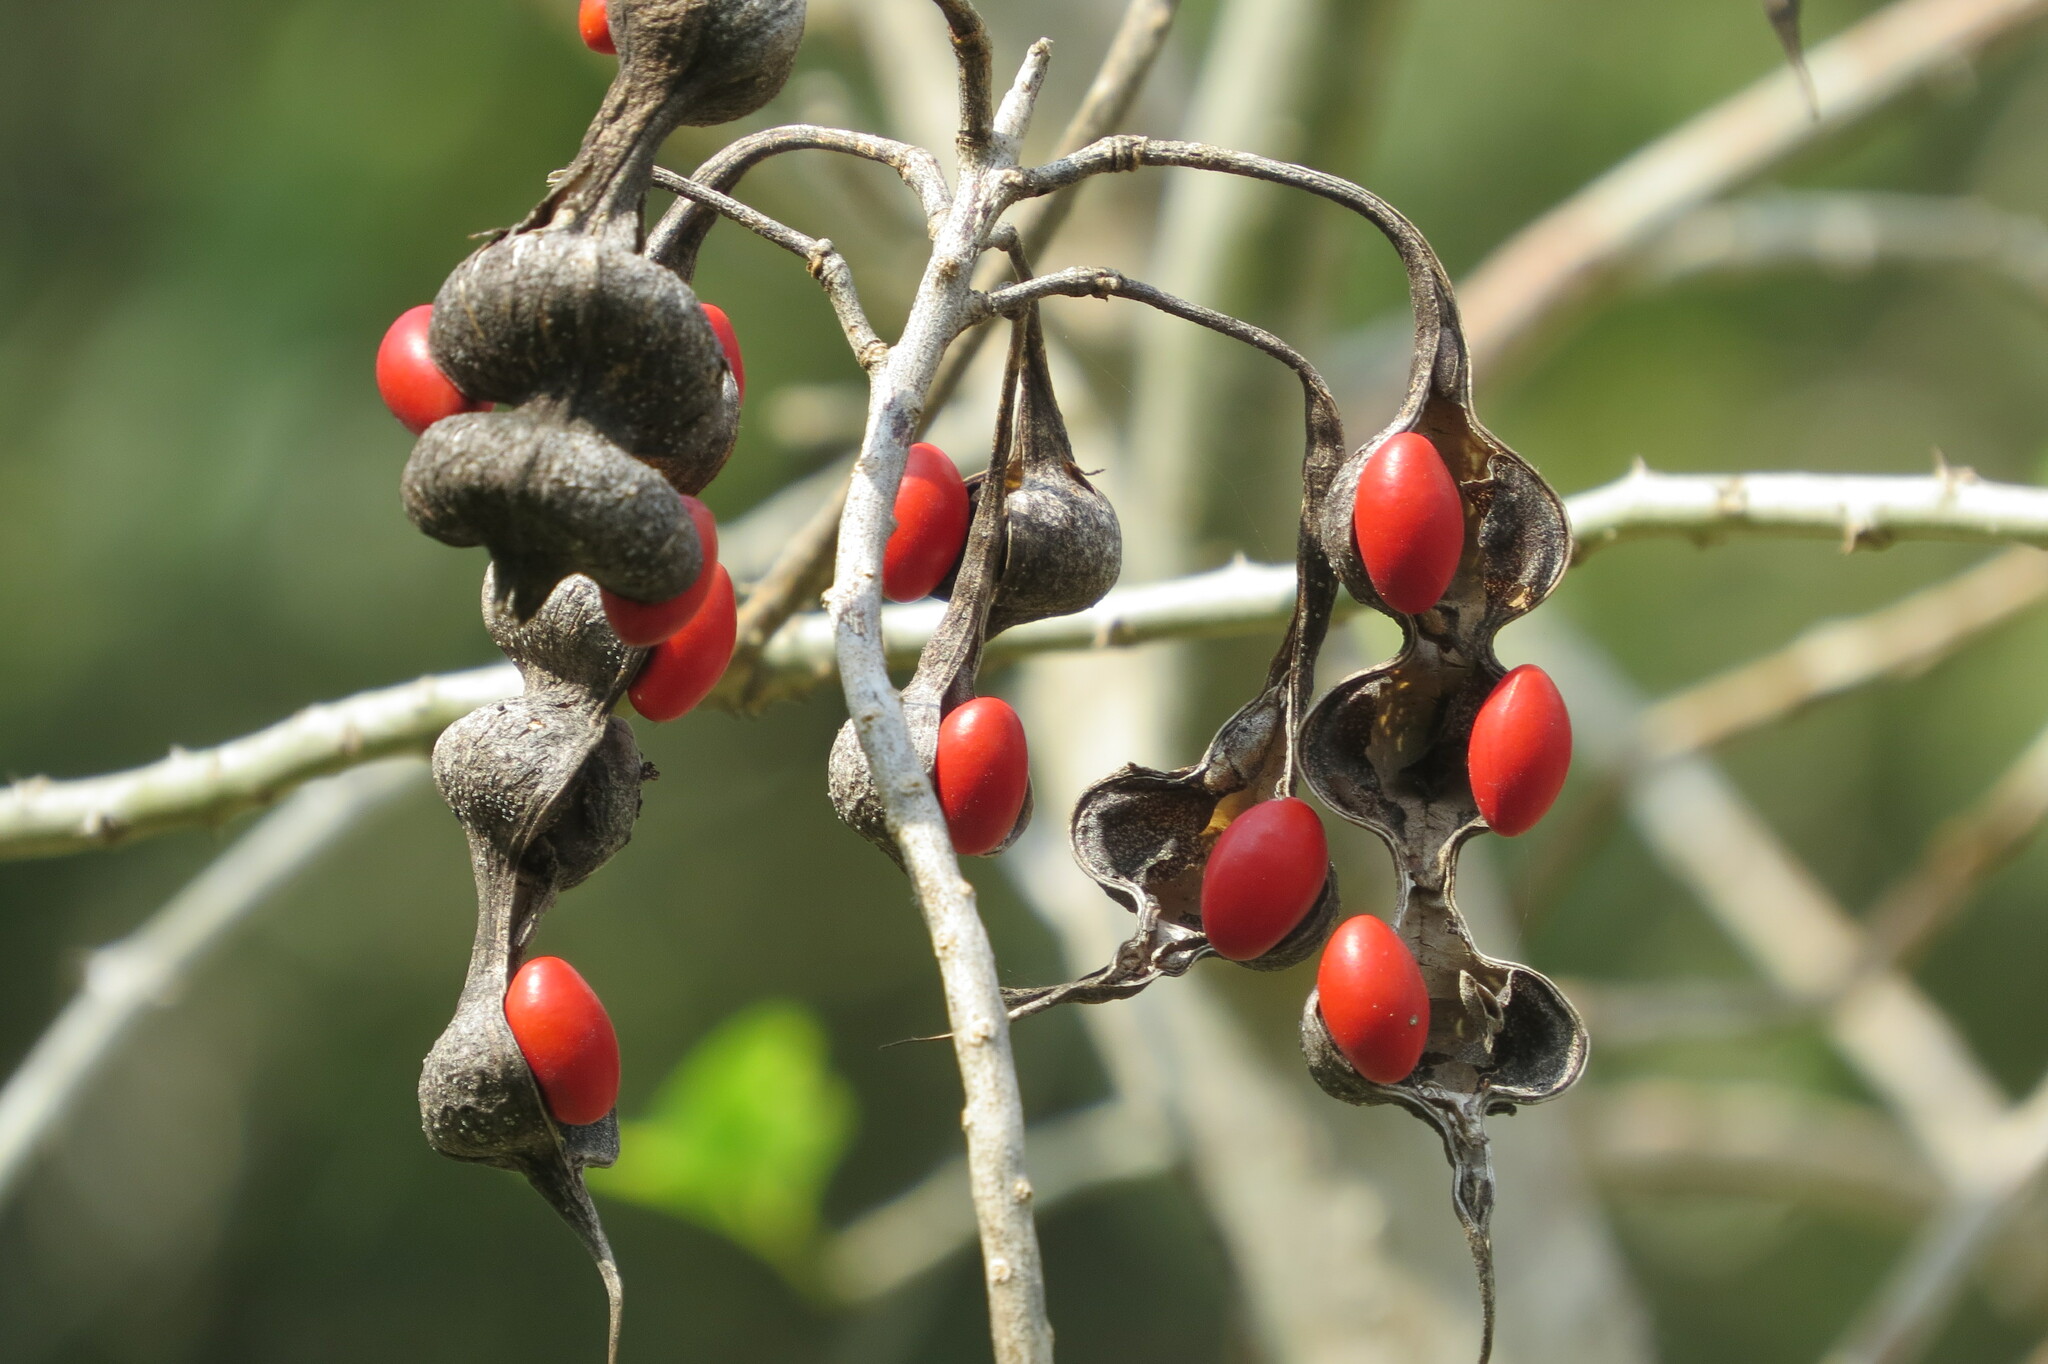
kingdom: Plantae
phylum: Tracheophyta
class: Magnoliopsida
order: Fabales
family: Fabaceae
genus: Erythrina
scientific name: Erythrina herbacea
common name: Coral-bean
